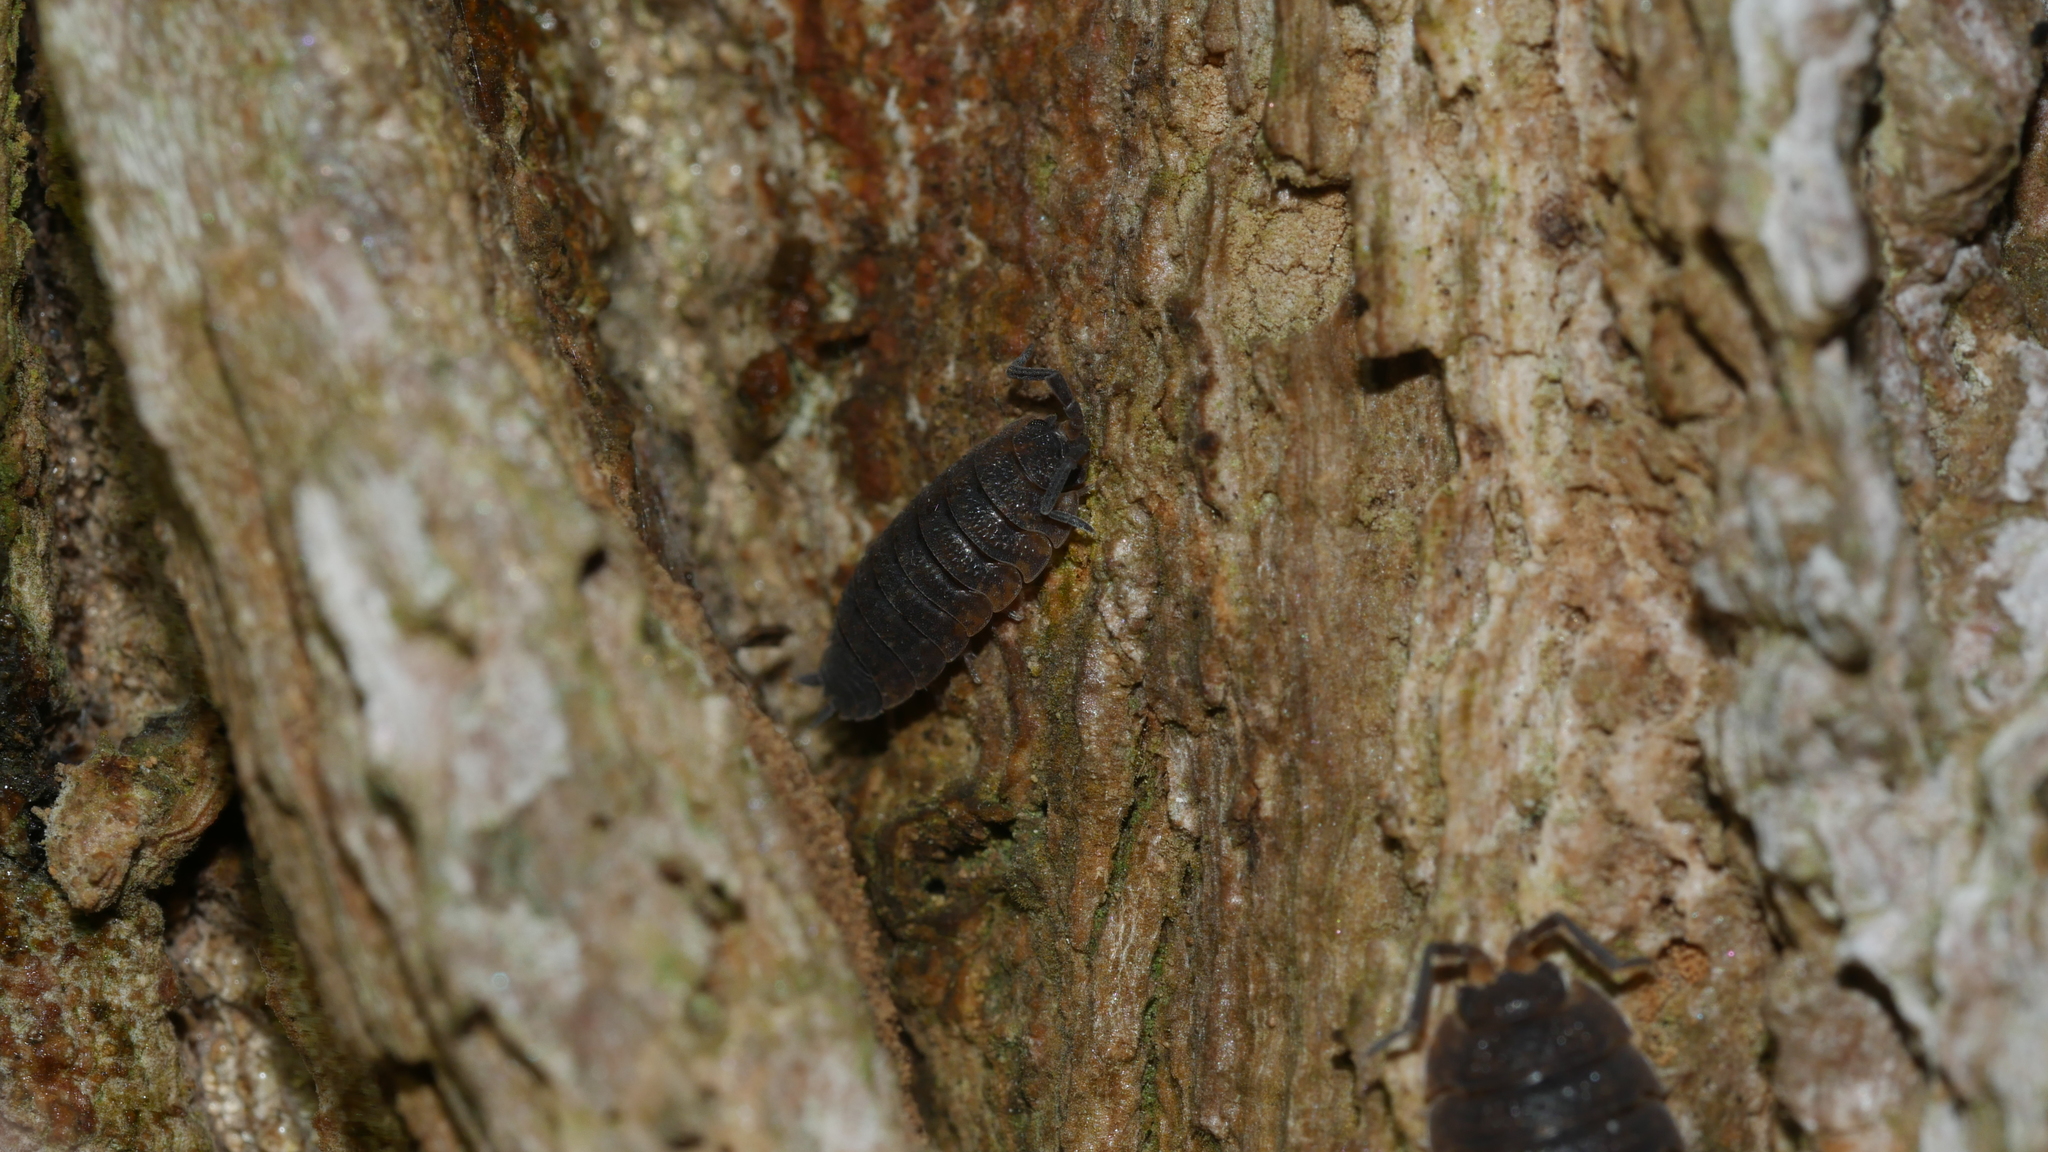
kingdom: Animalia
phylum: Arthropoda
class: Malacostraca
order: Isopoda
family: Porcellionidae
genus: Porcellio
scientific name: Porcellio scaber
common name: Common rough woodlouse
